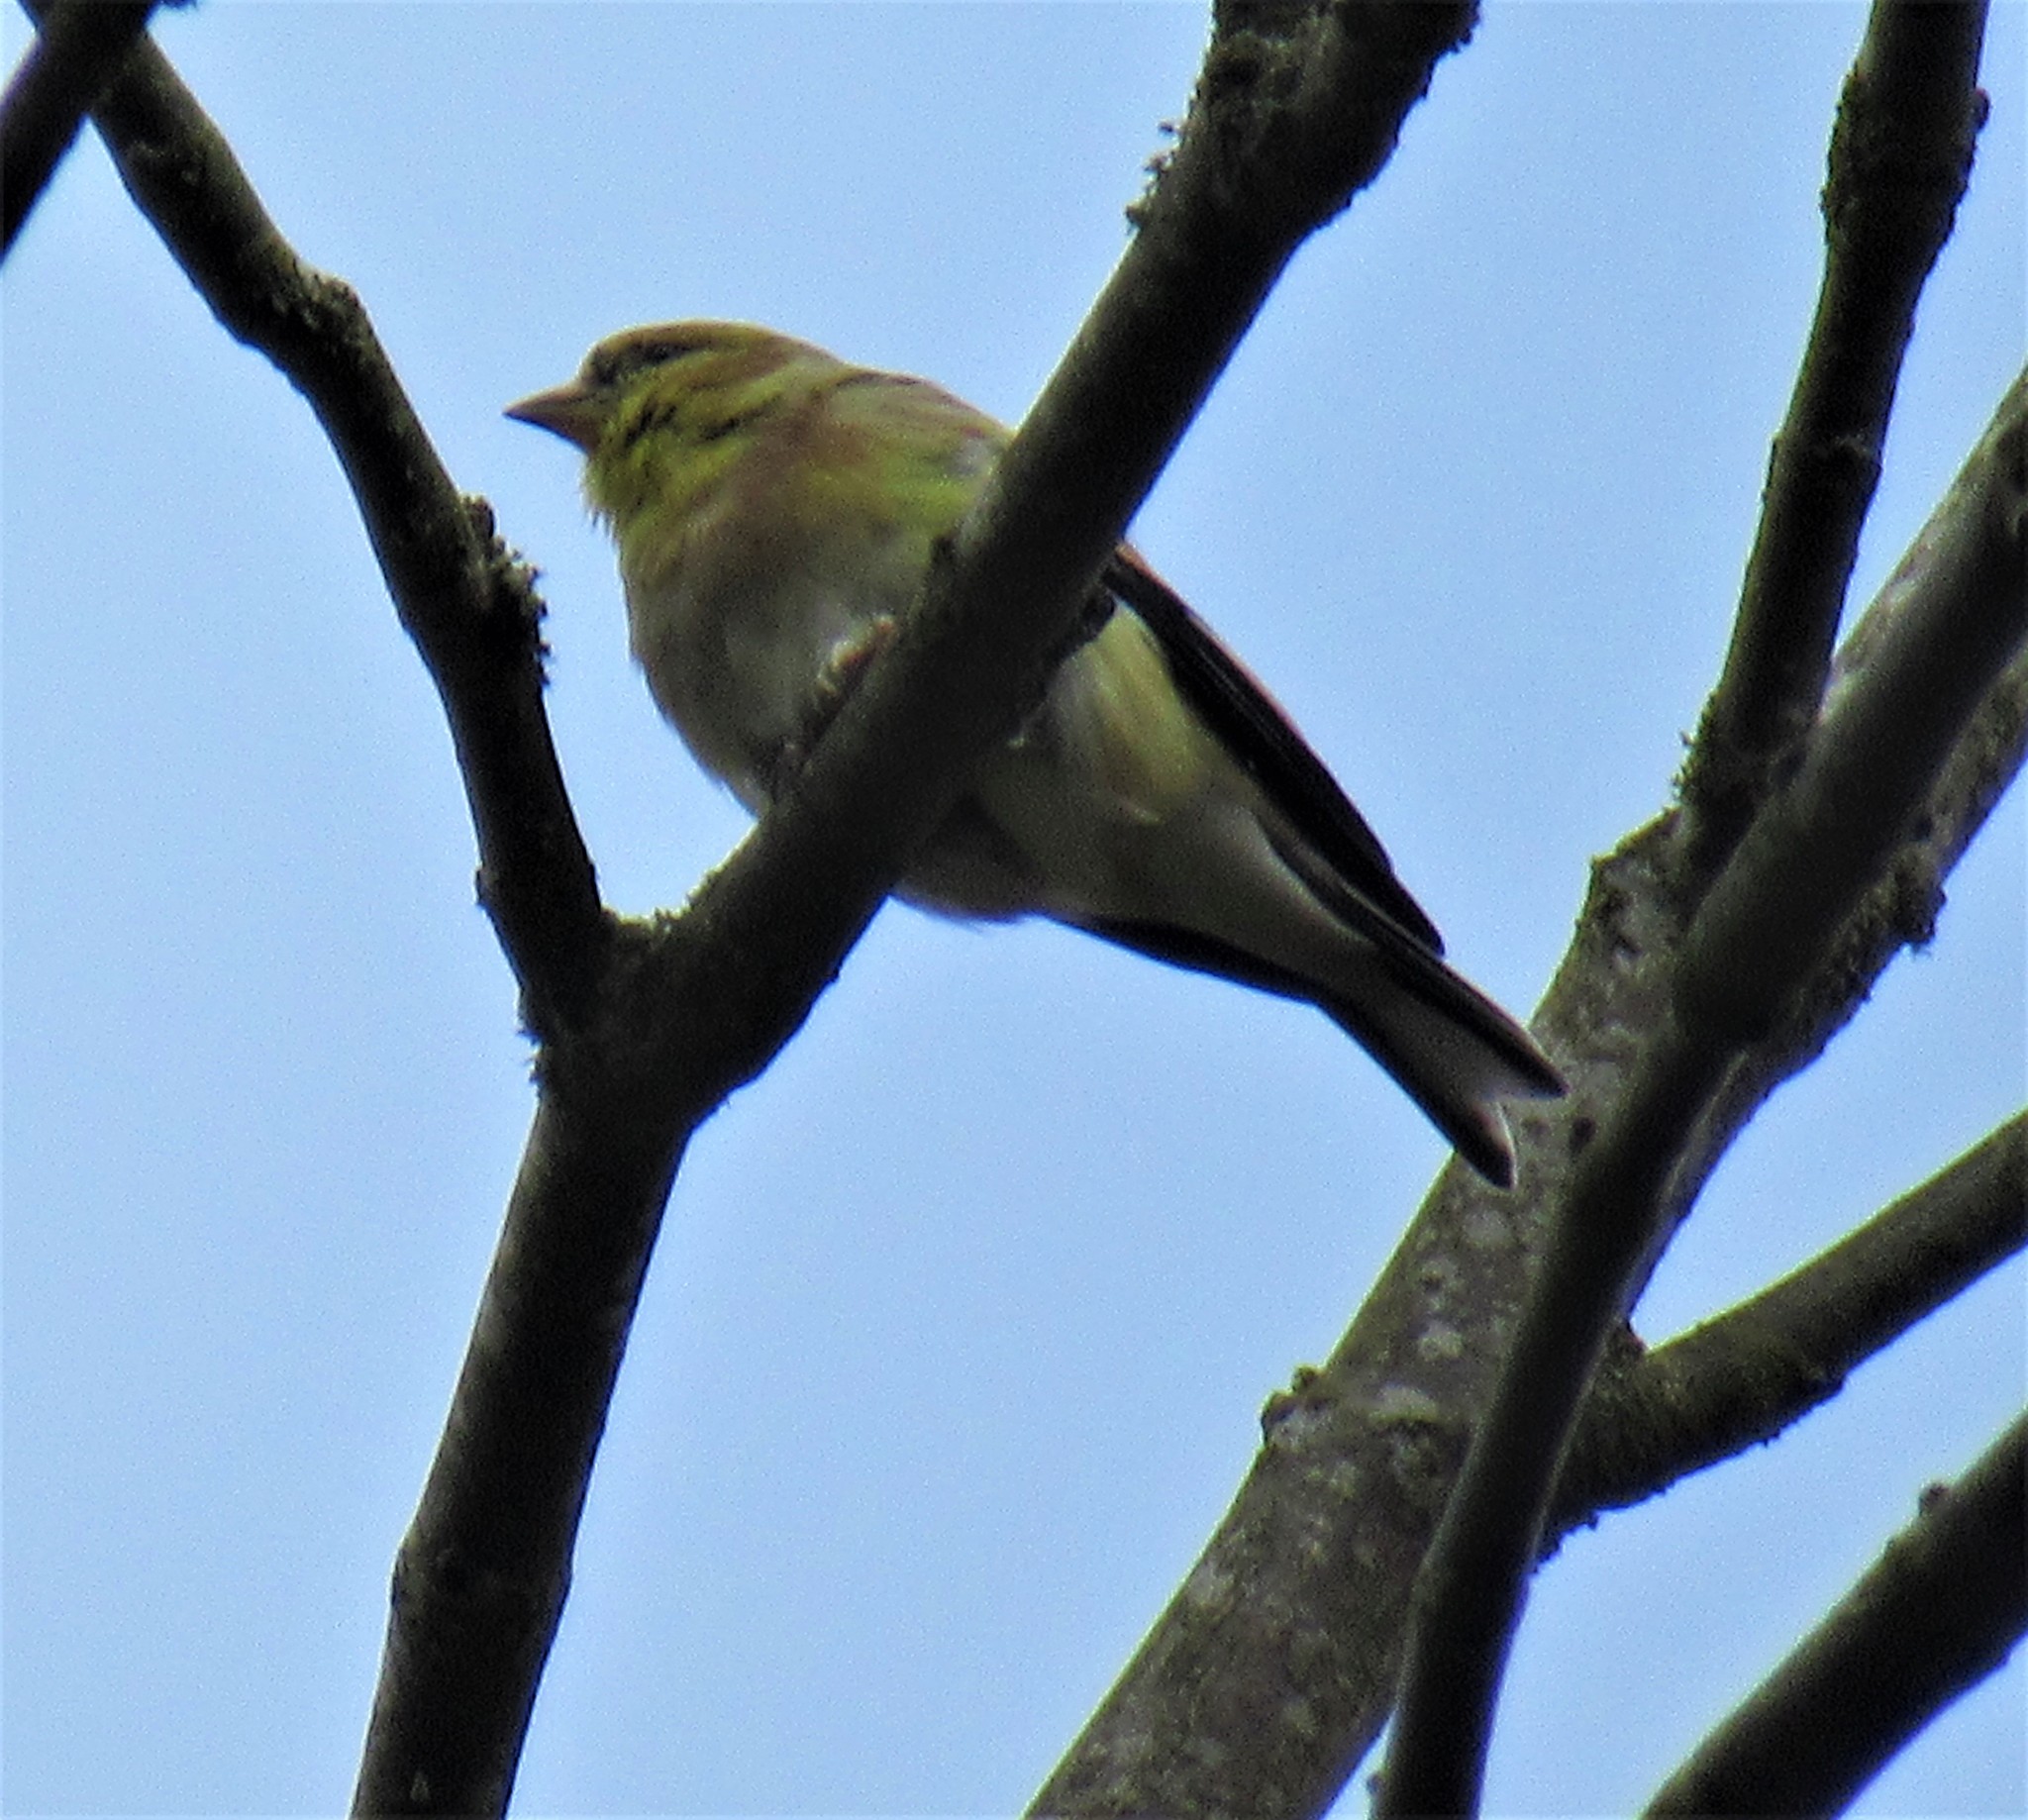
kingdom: Animalia
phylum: Chordata
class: Aves
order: Passeriformes
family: Fringillidae
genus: Spinus
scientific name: Spinus tristis
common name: American goldfinch
